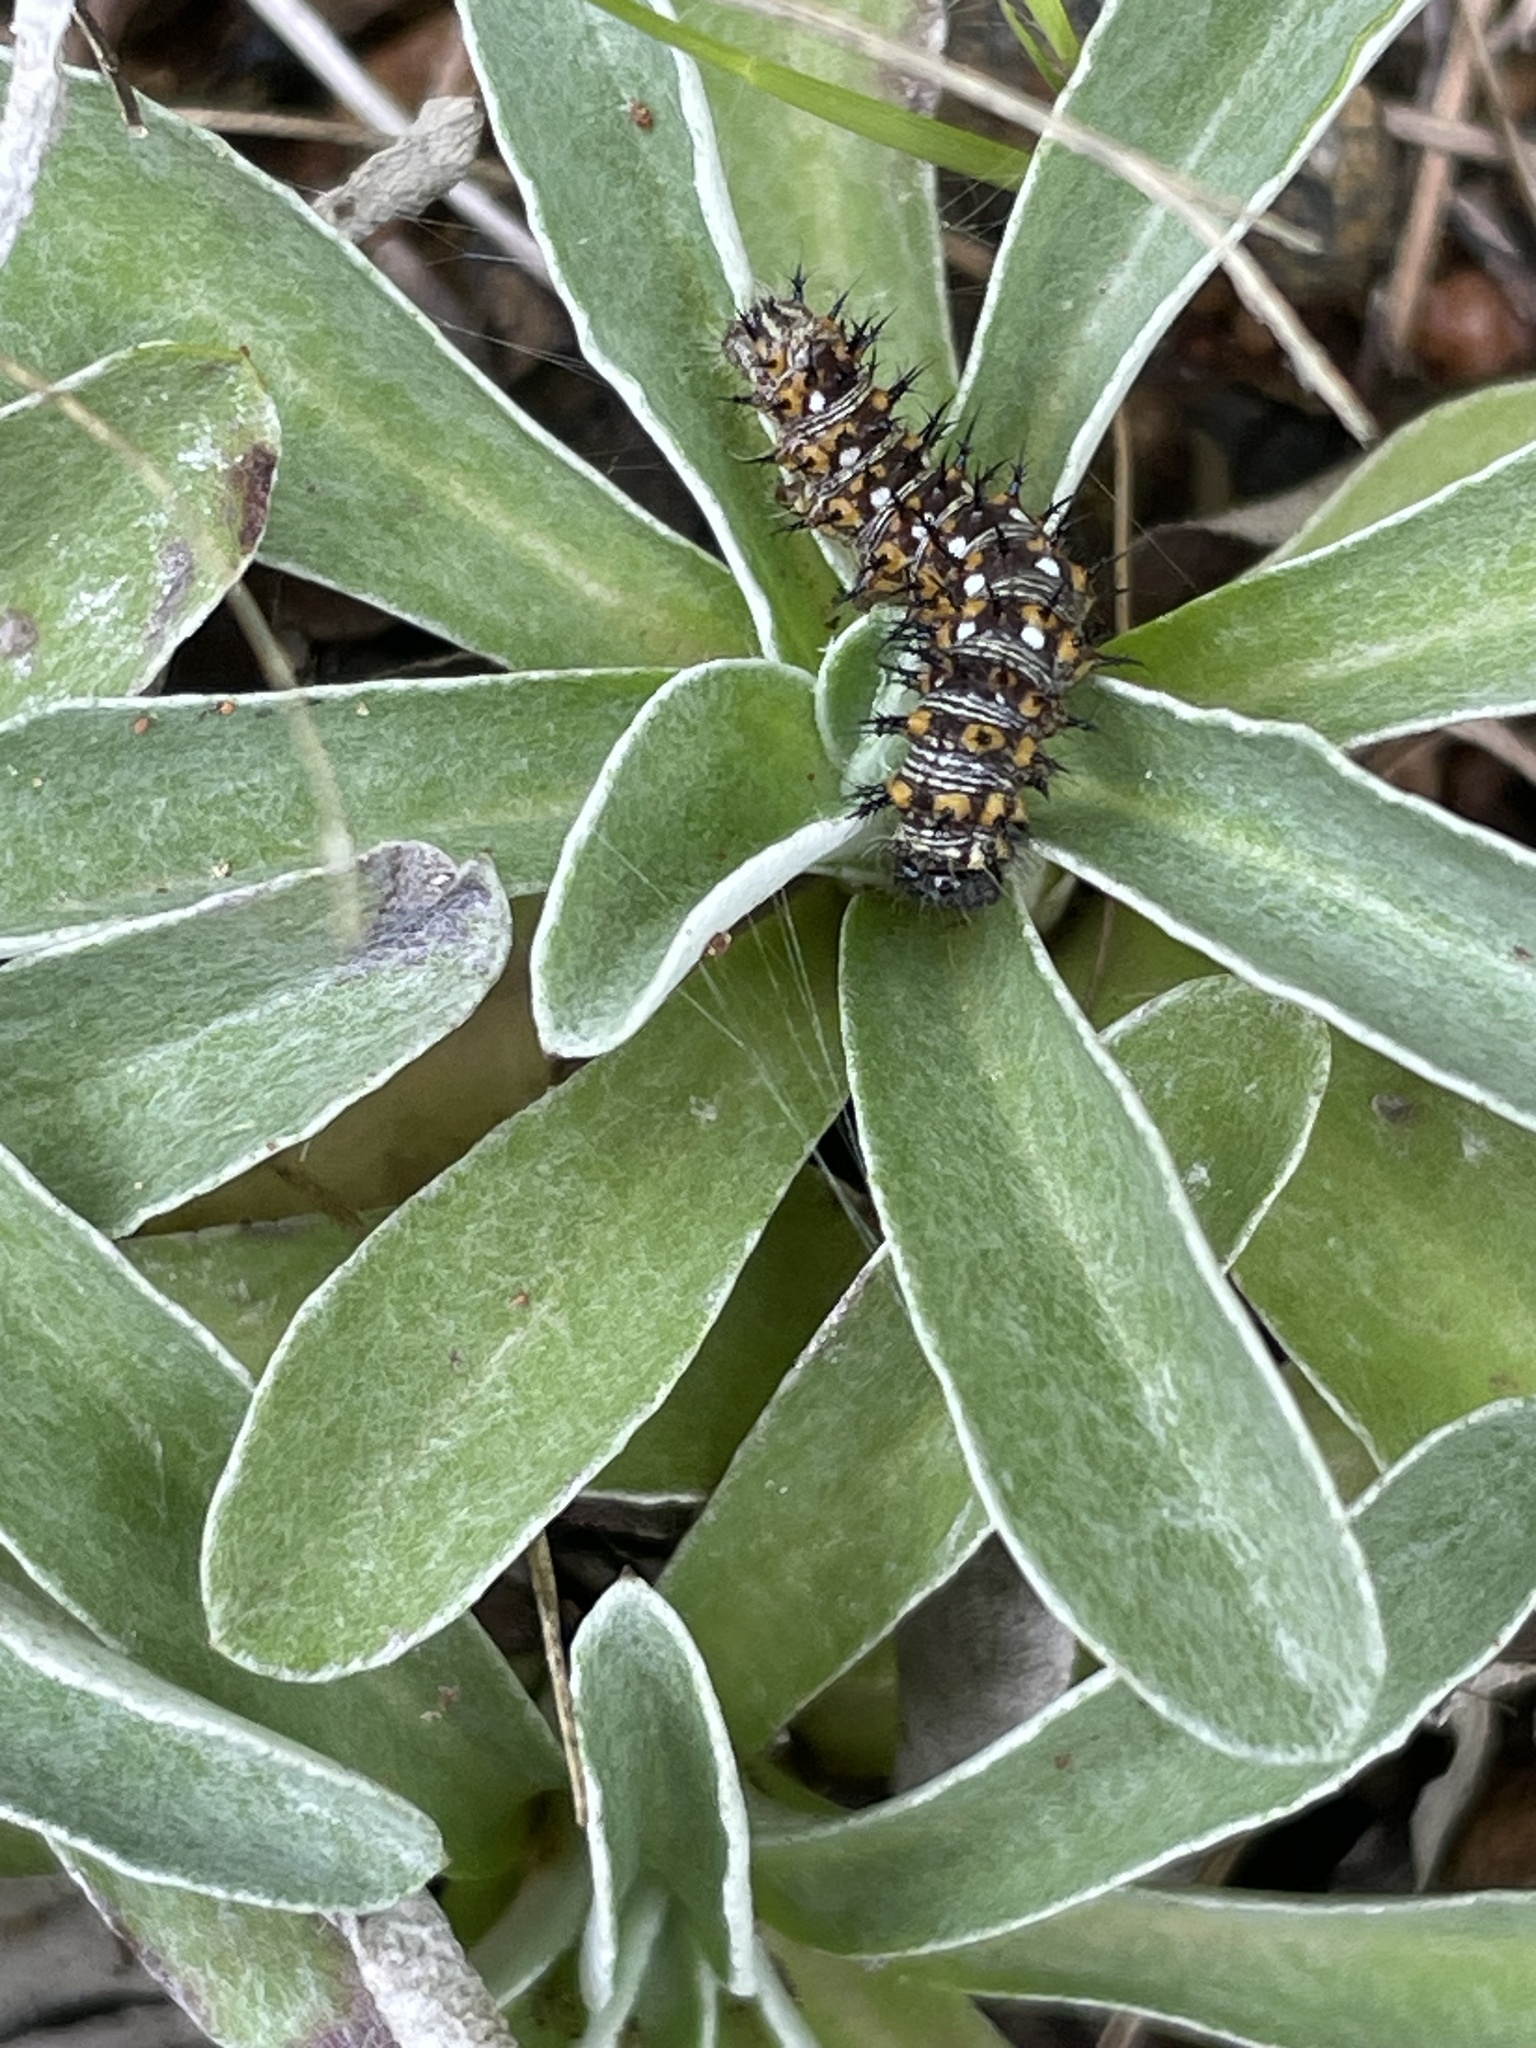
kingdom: Animalia
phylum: Arthropoda
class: Insecta
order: Lepidoptera
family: Nymphalidae
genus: Vanessa
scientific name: Vanessa virginiensis
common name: American lady
